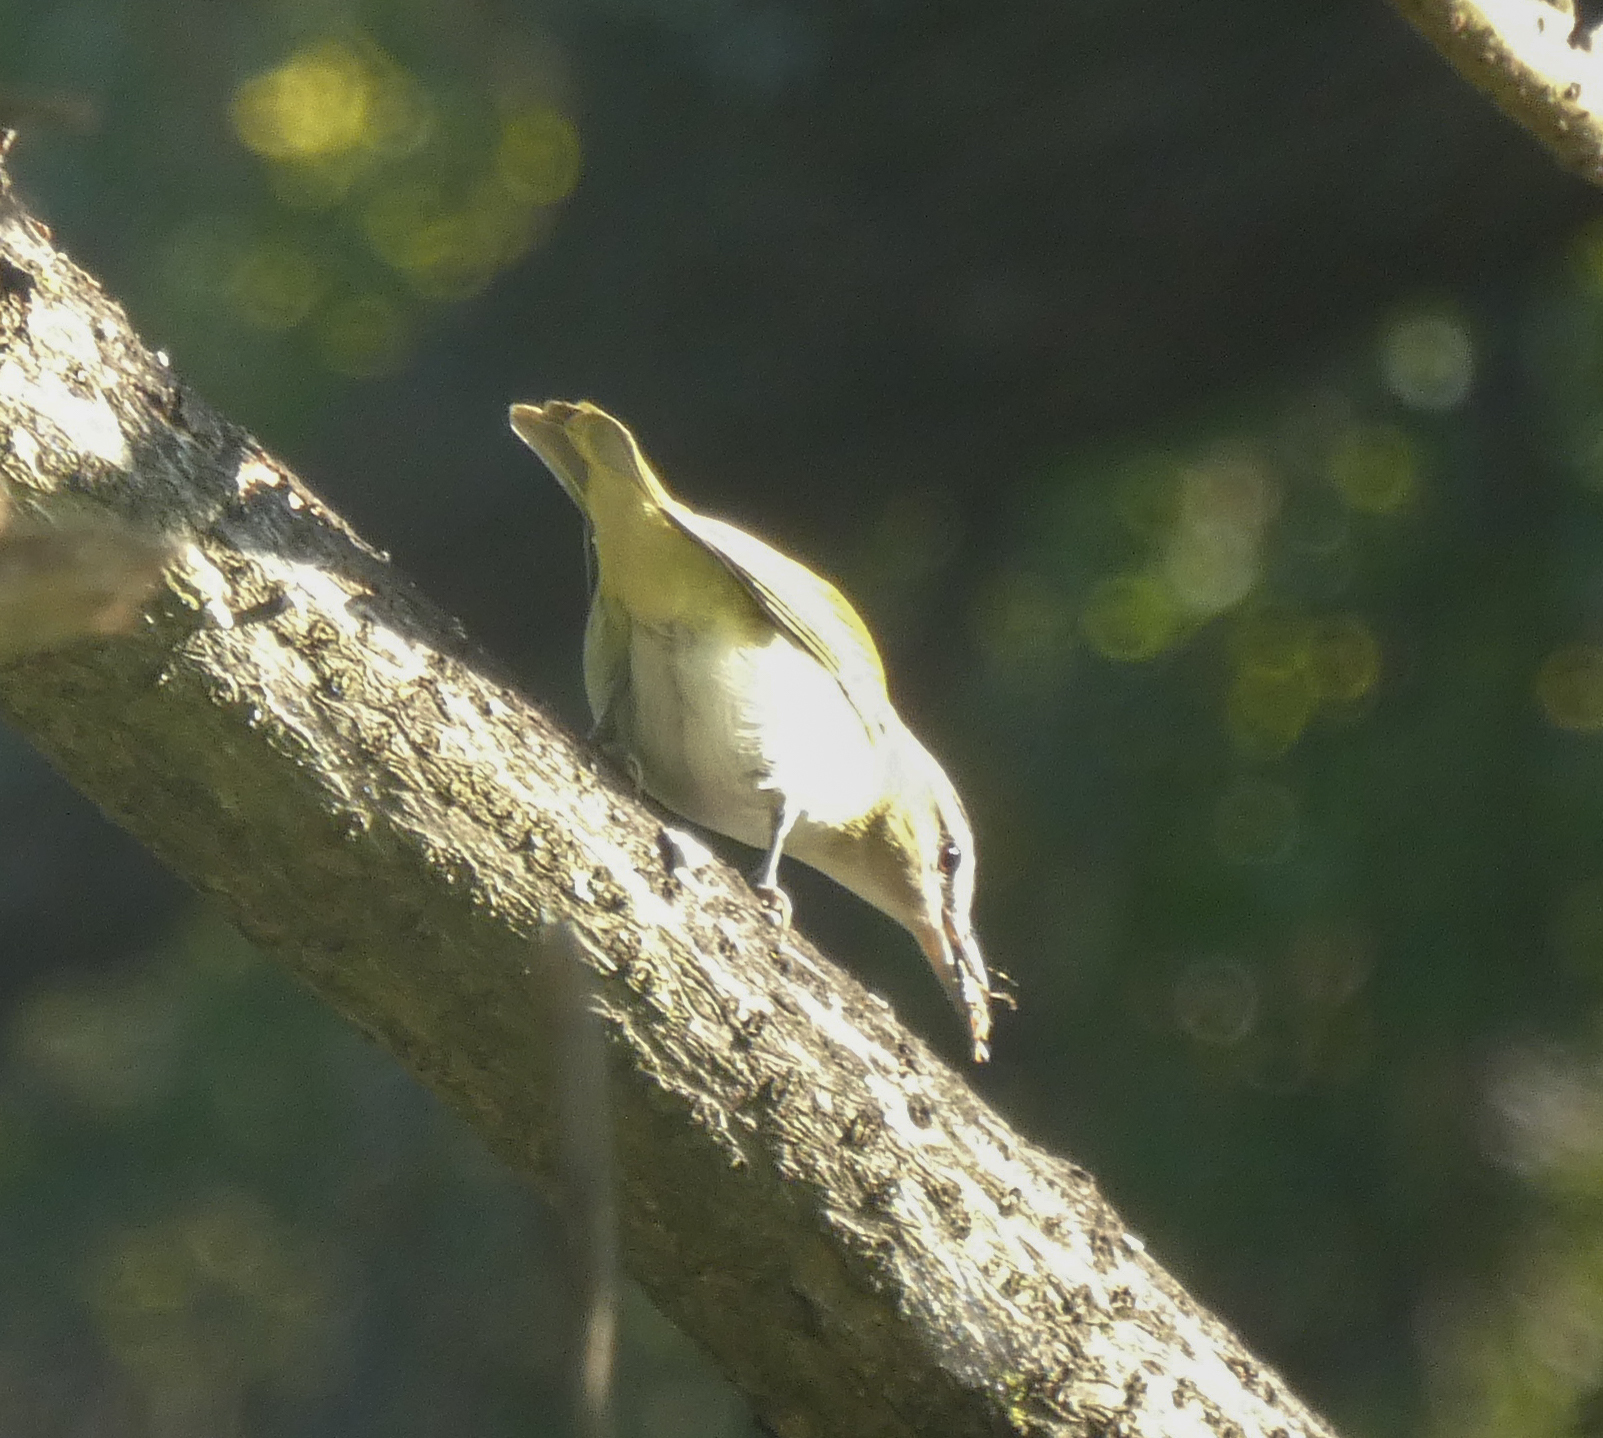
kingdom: Animalia
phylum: Chordata
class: Aves
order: Passeriformes
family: Vireonidae
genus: Vireo
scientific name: Vireo olivaceus
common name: Red-eyed vireo
